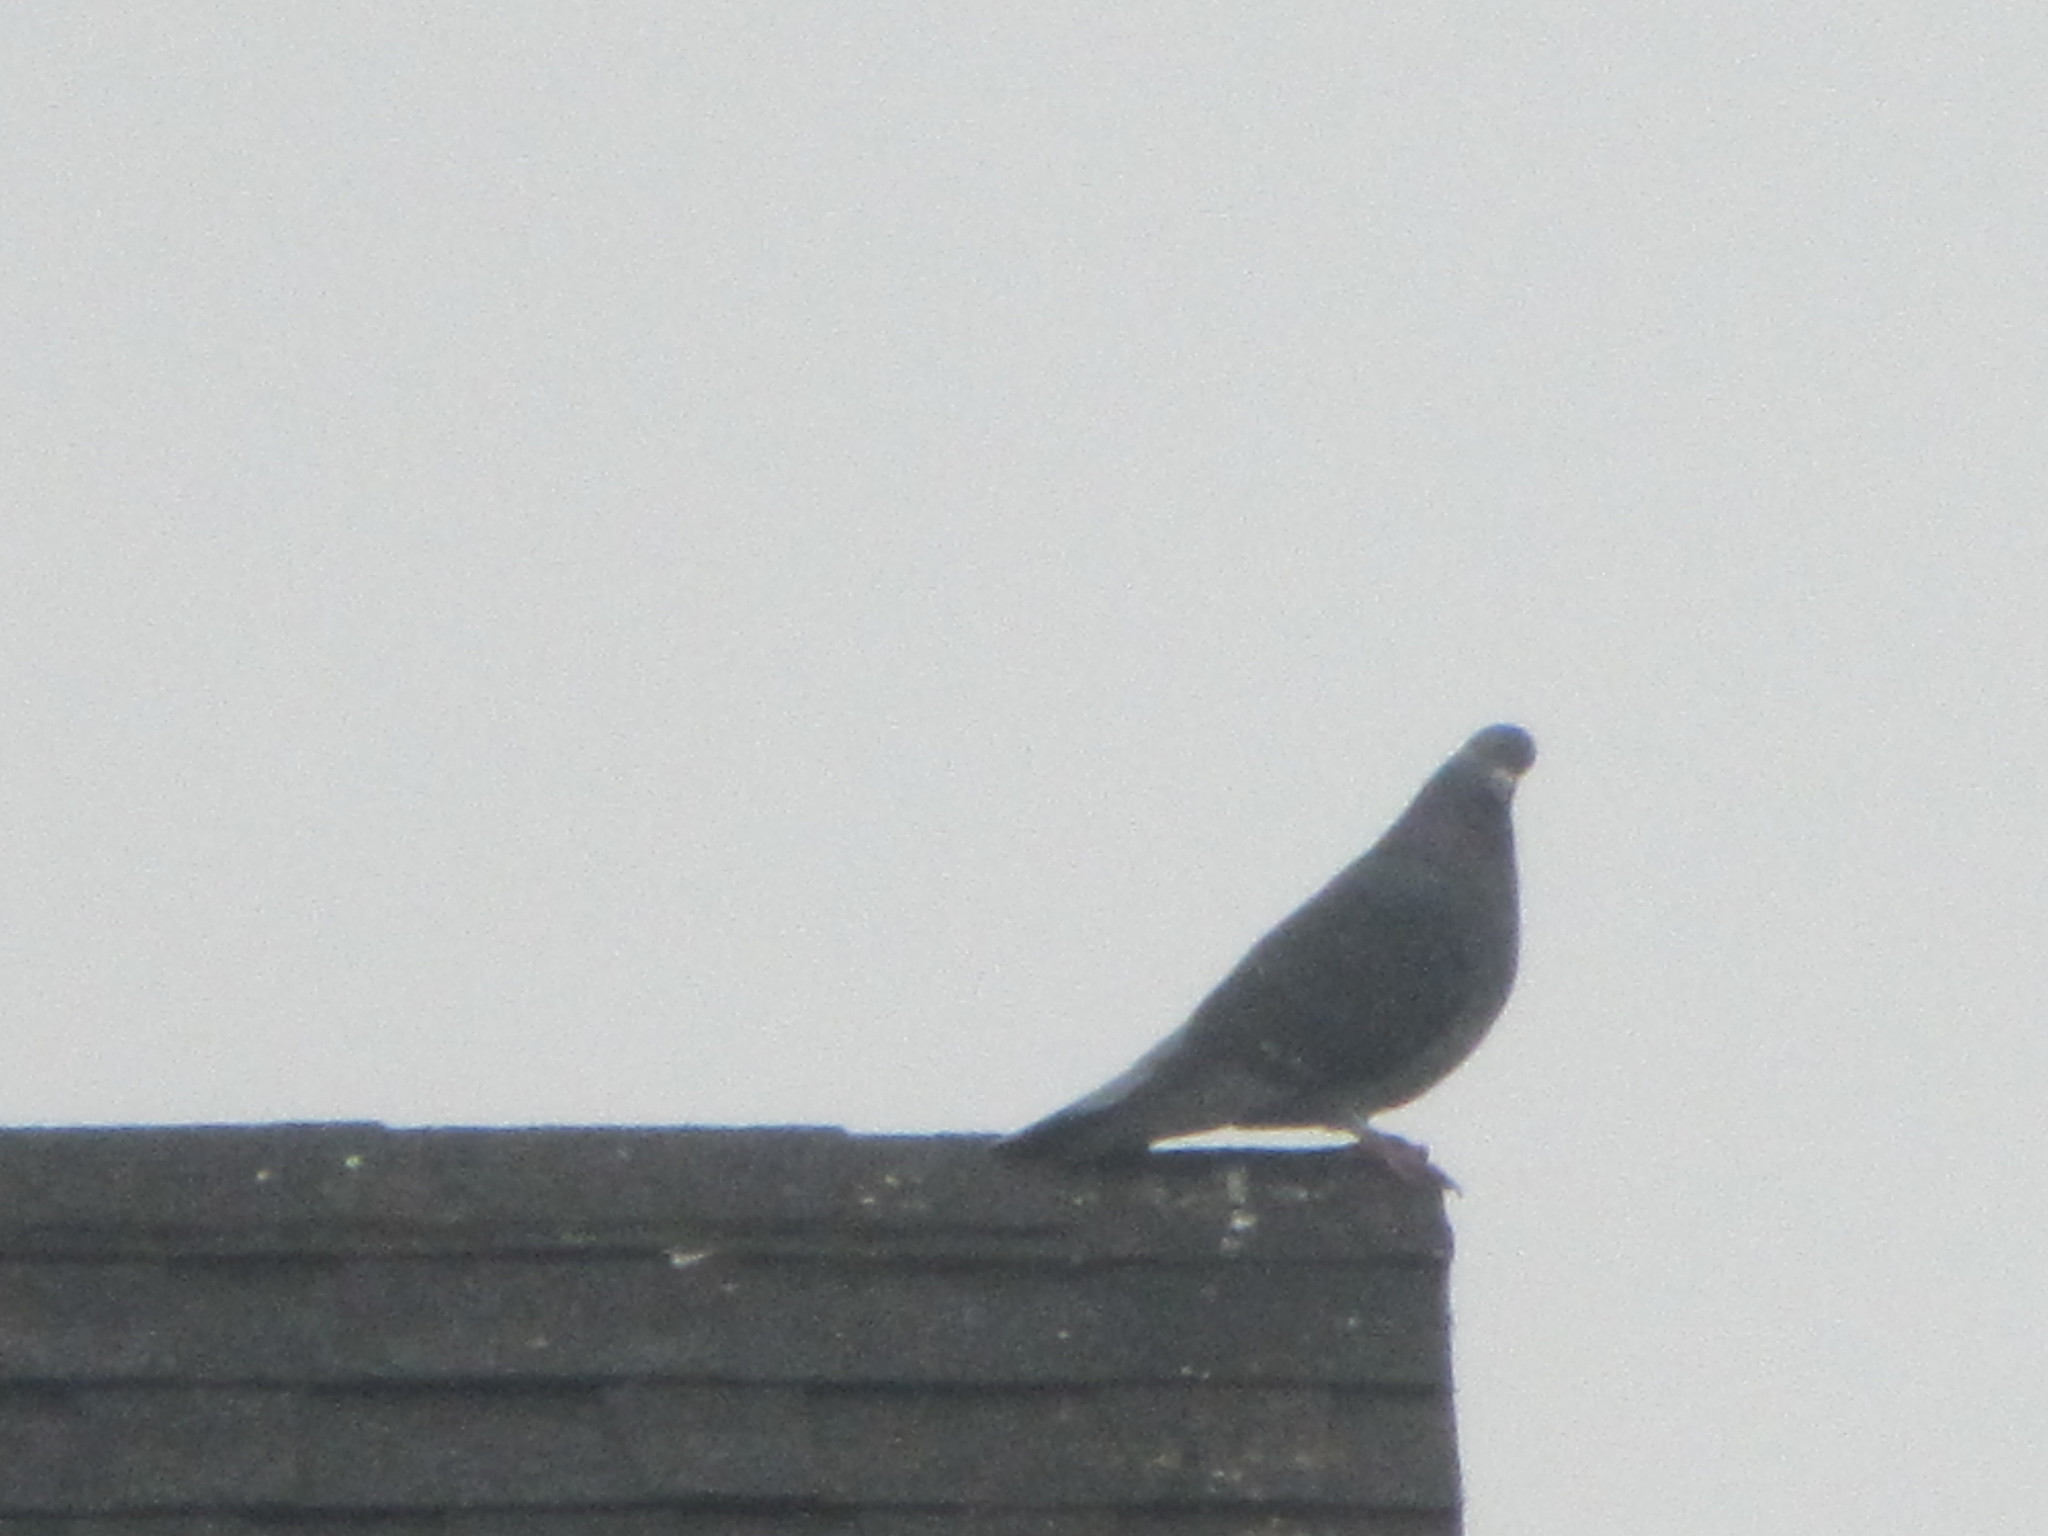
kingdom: Animalia
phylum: Chordata
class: Aves
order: Columbiformes
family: Columbidae
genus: Columba
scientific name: Columba livia
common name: Rock pigeon
